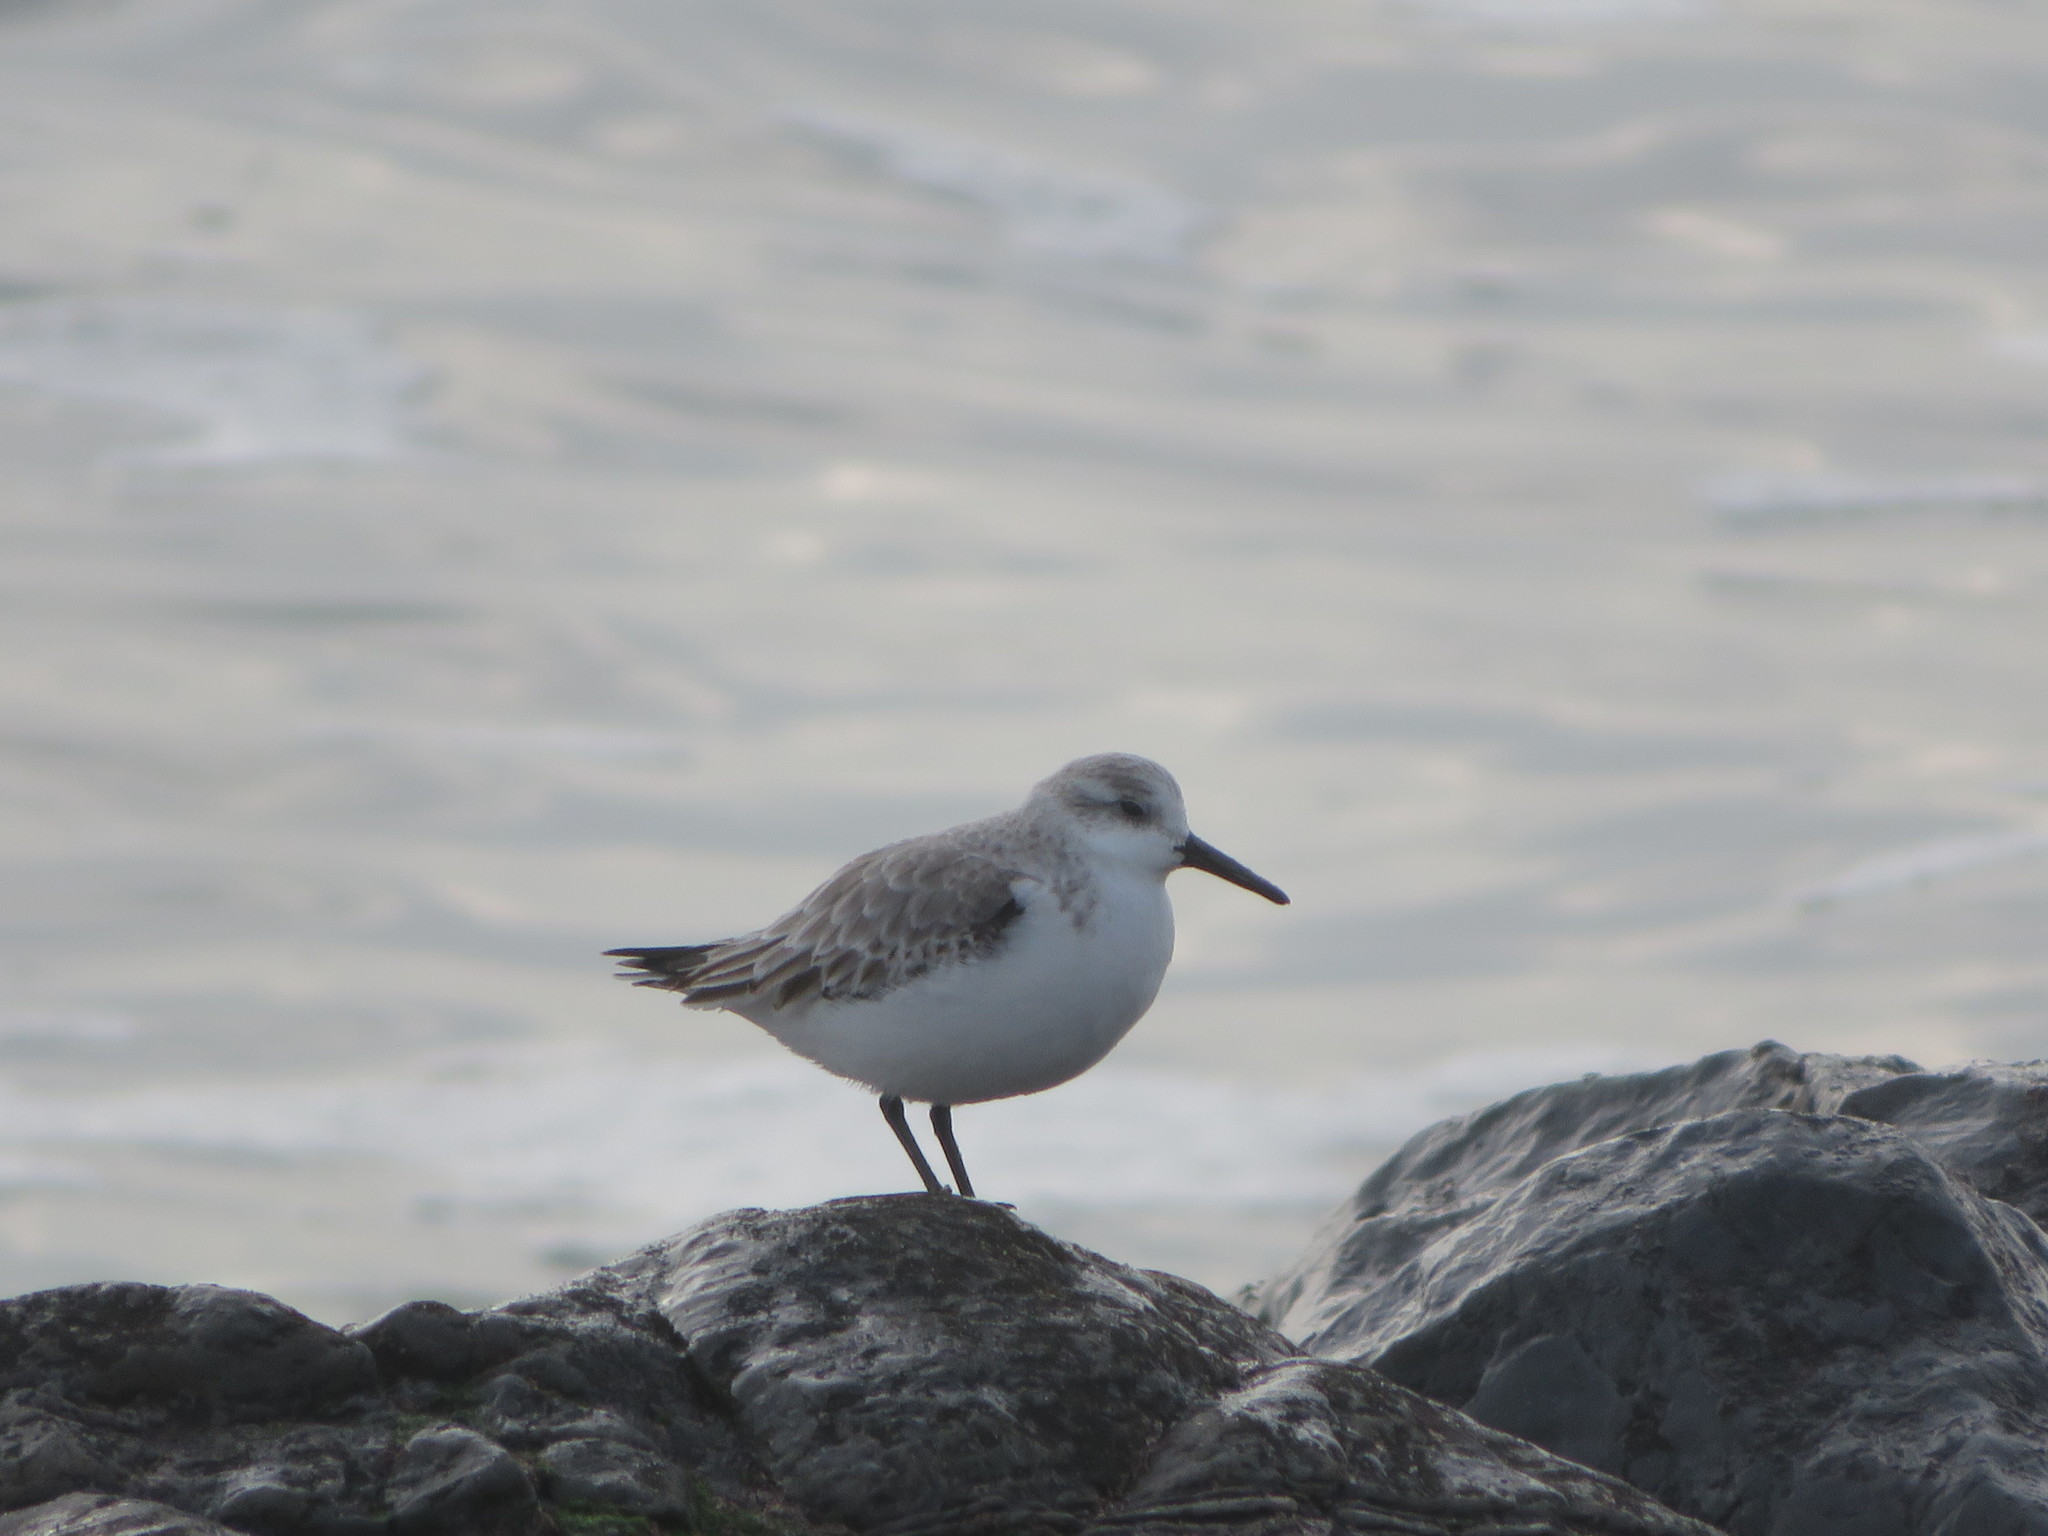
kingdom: Animalia
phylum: Chordata
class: Aves
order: Charadriiformes
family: Scolopacidae
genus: Calidris
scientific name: Calidris alba
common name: Sanderling
